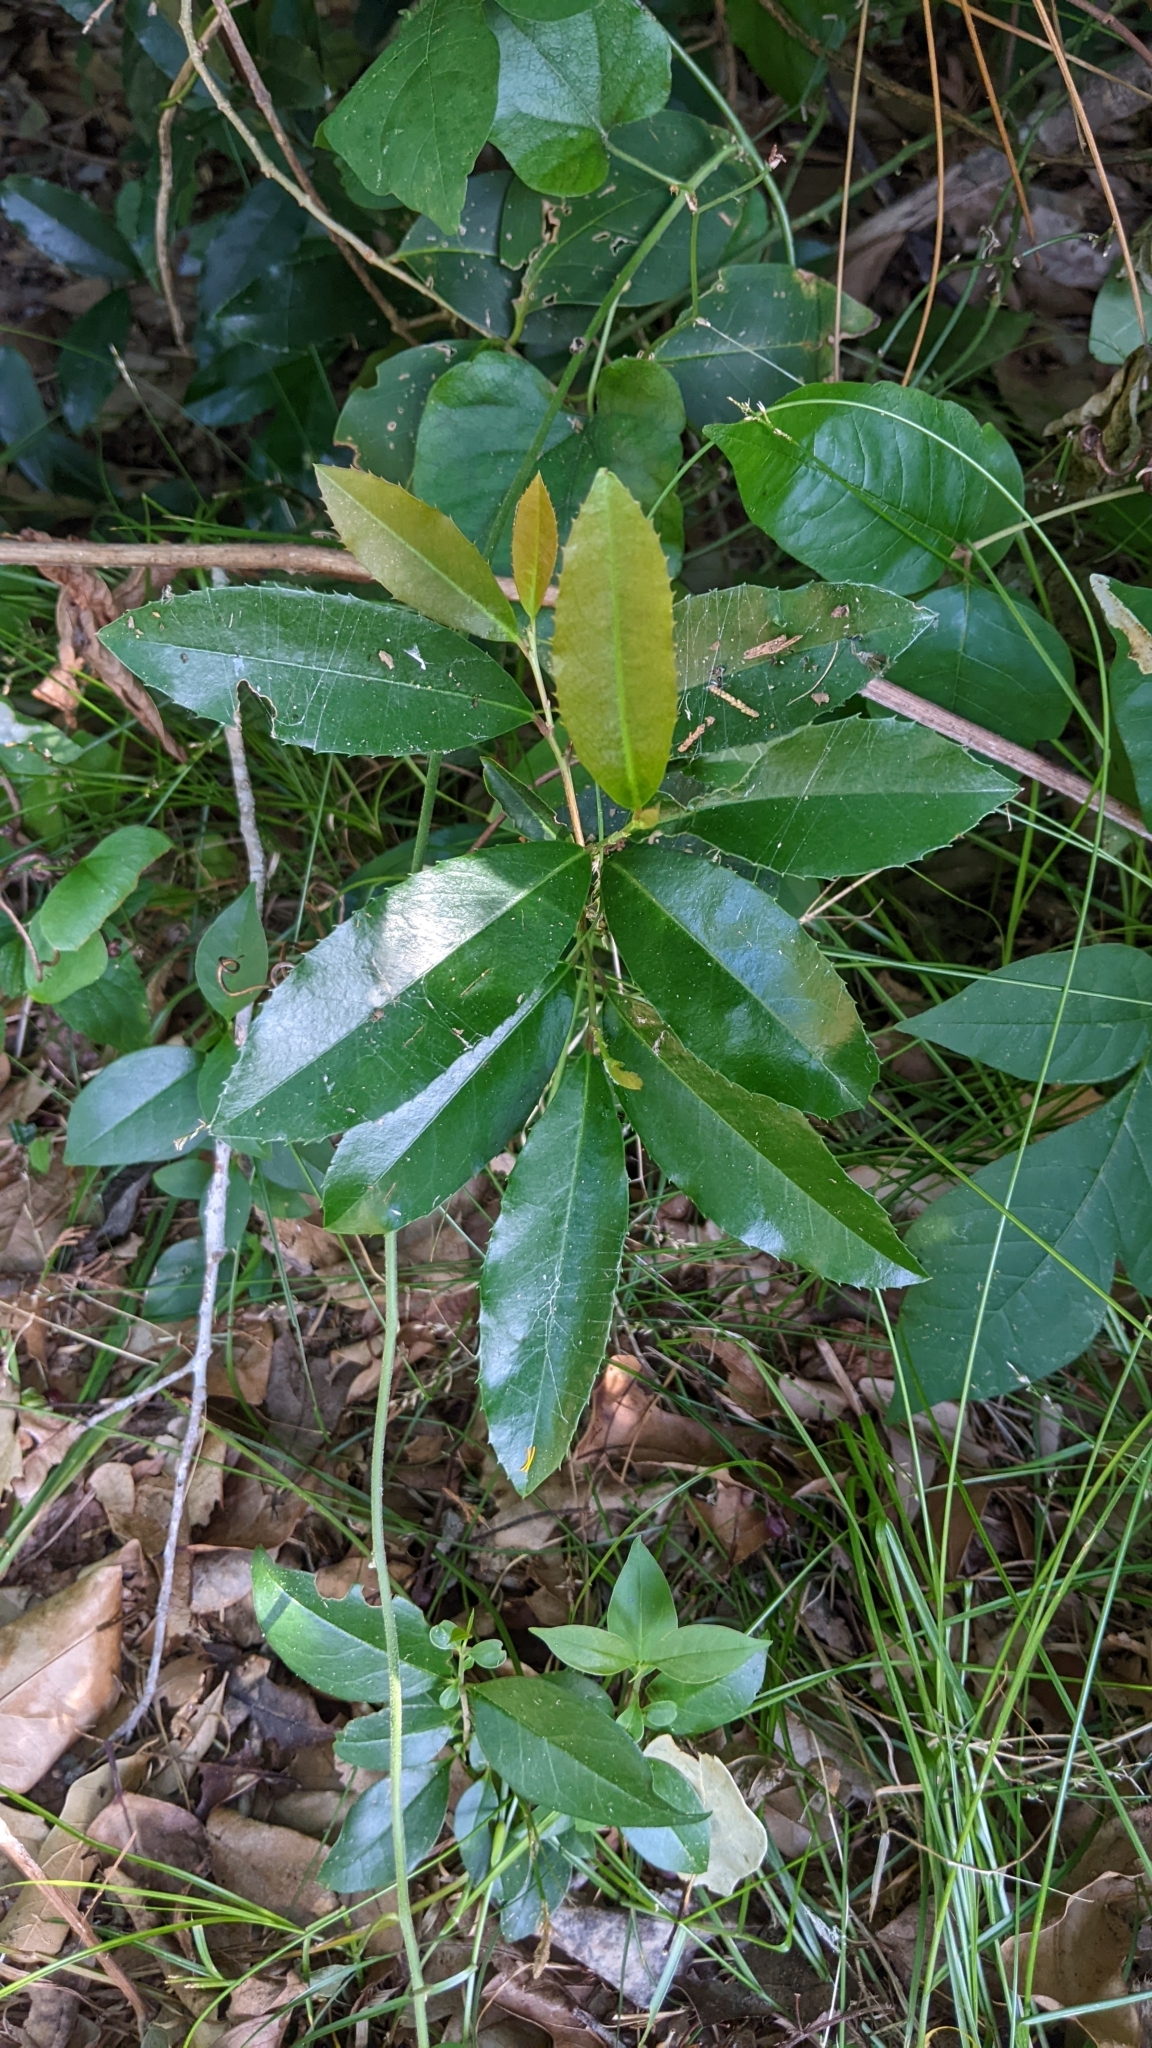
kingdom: Plantae
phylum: Tracheophyta
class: Magnoliopsida
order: Rosales
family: Rosaceae
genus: Prunus
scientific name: Prunus caroliniana
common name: Carolina laurel cherry
